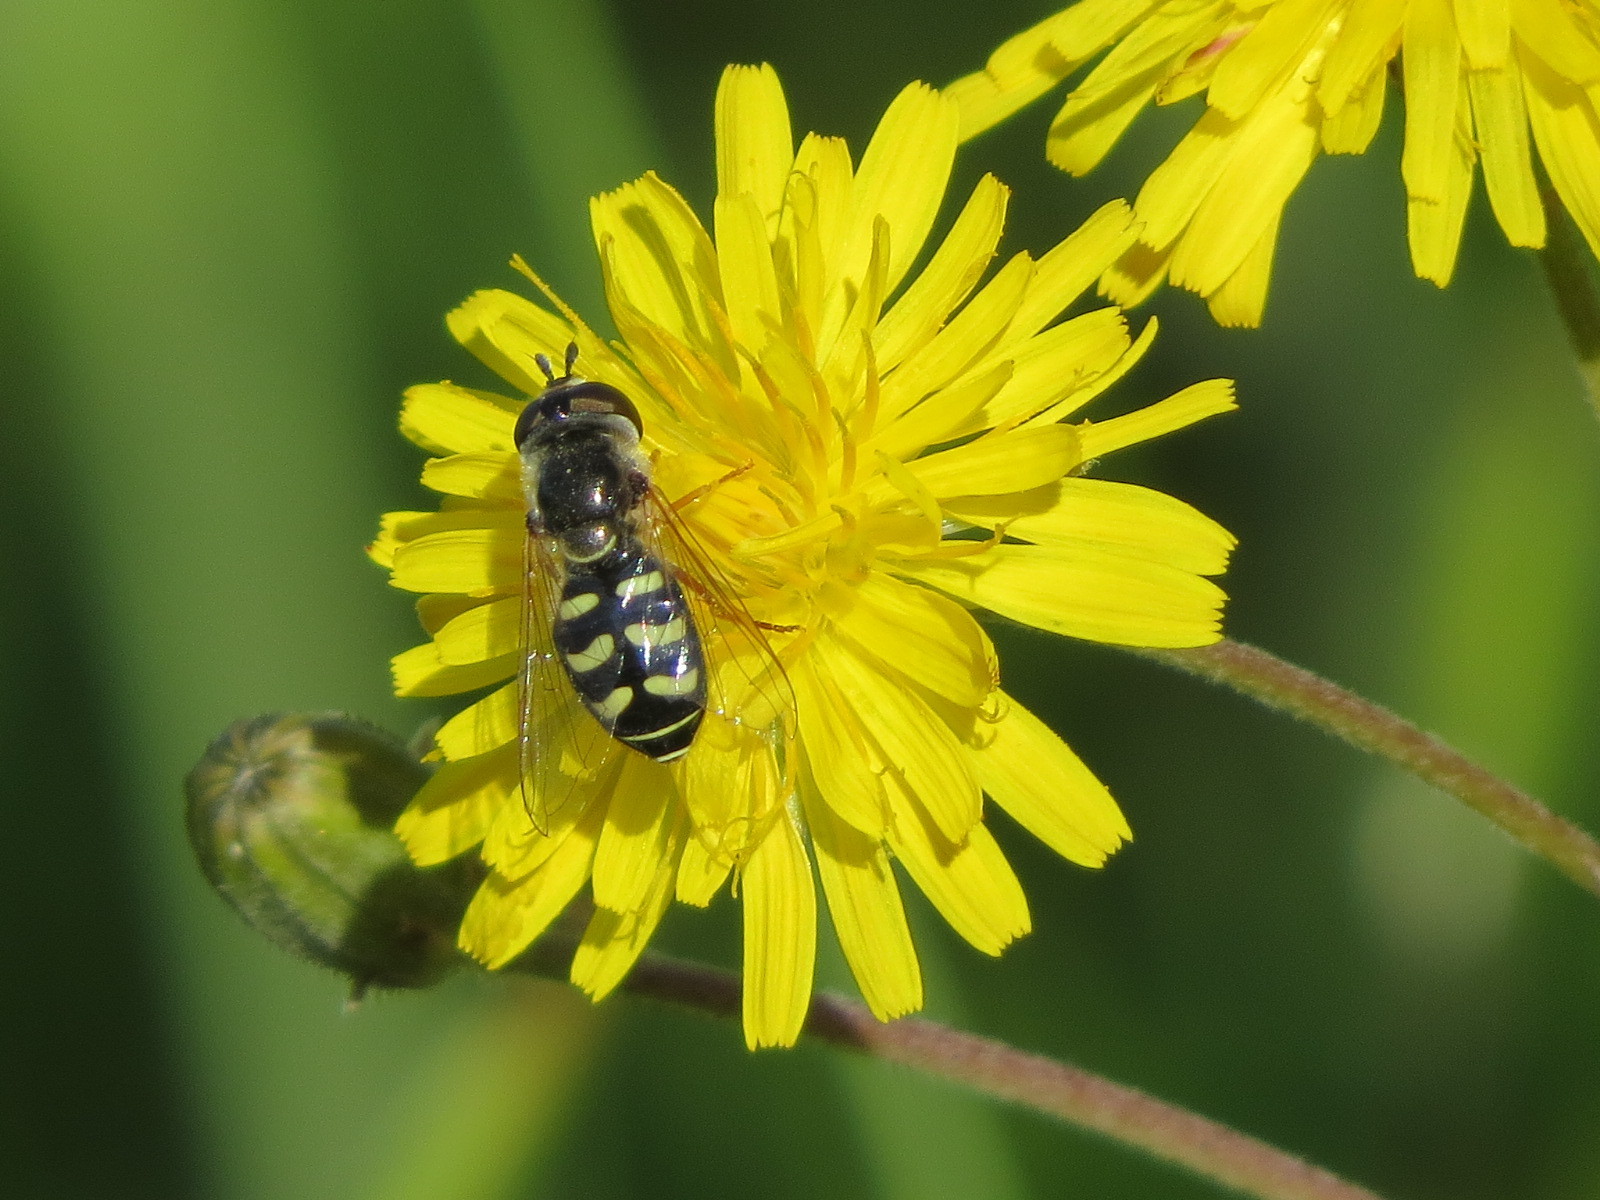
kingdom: Animalia
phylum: Arthropoda
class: Insecta
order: Diptera
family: Syrphidae
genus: Eupeodes
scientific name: Eupeodes volucris
